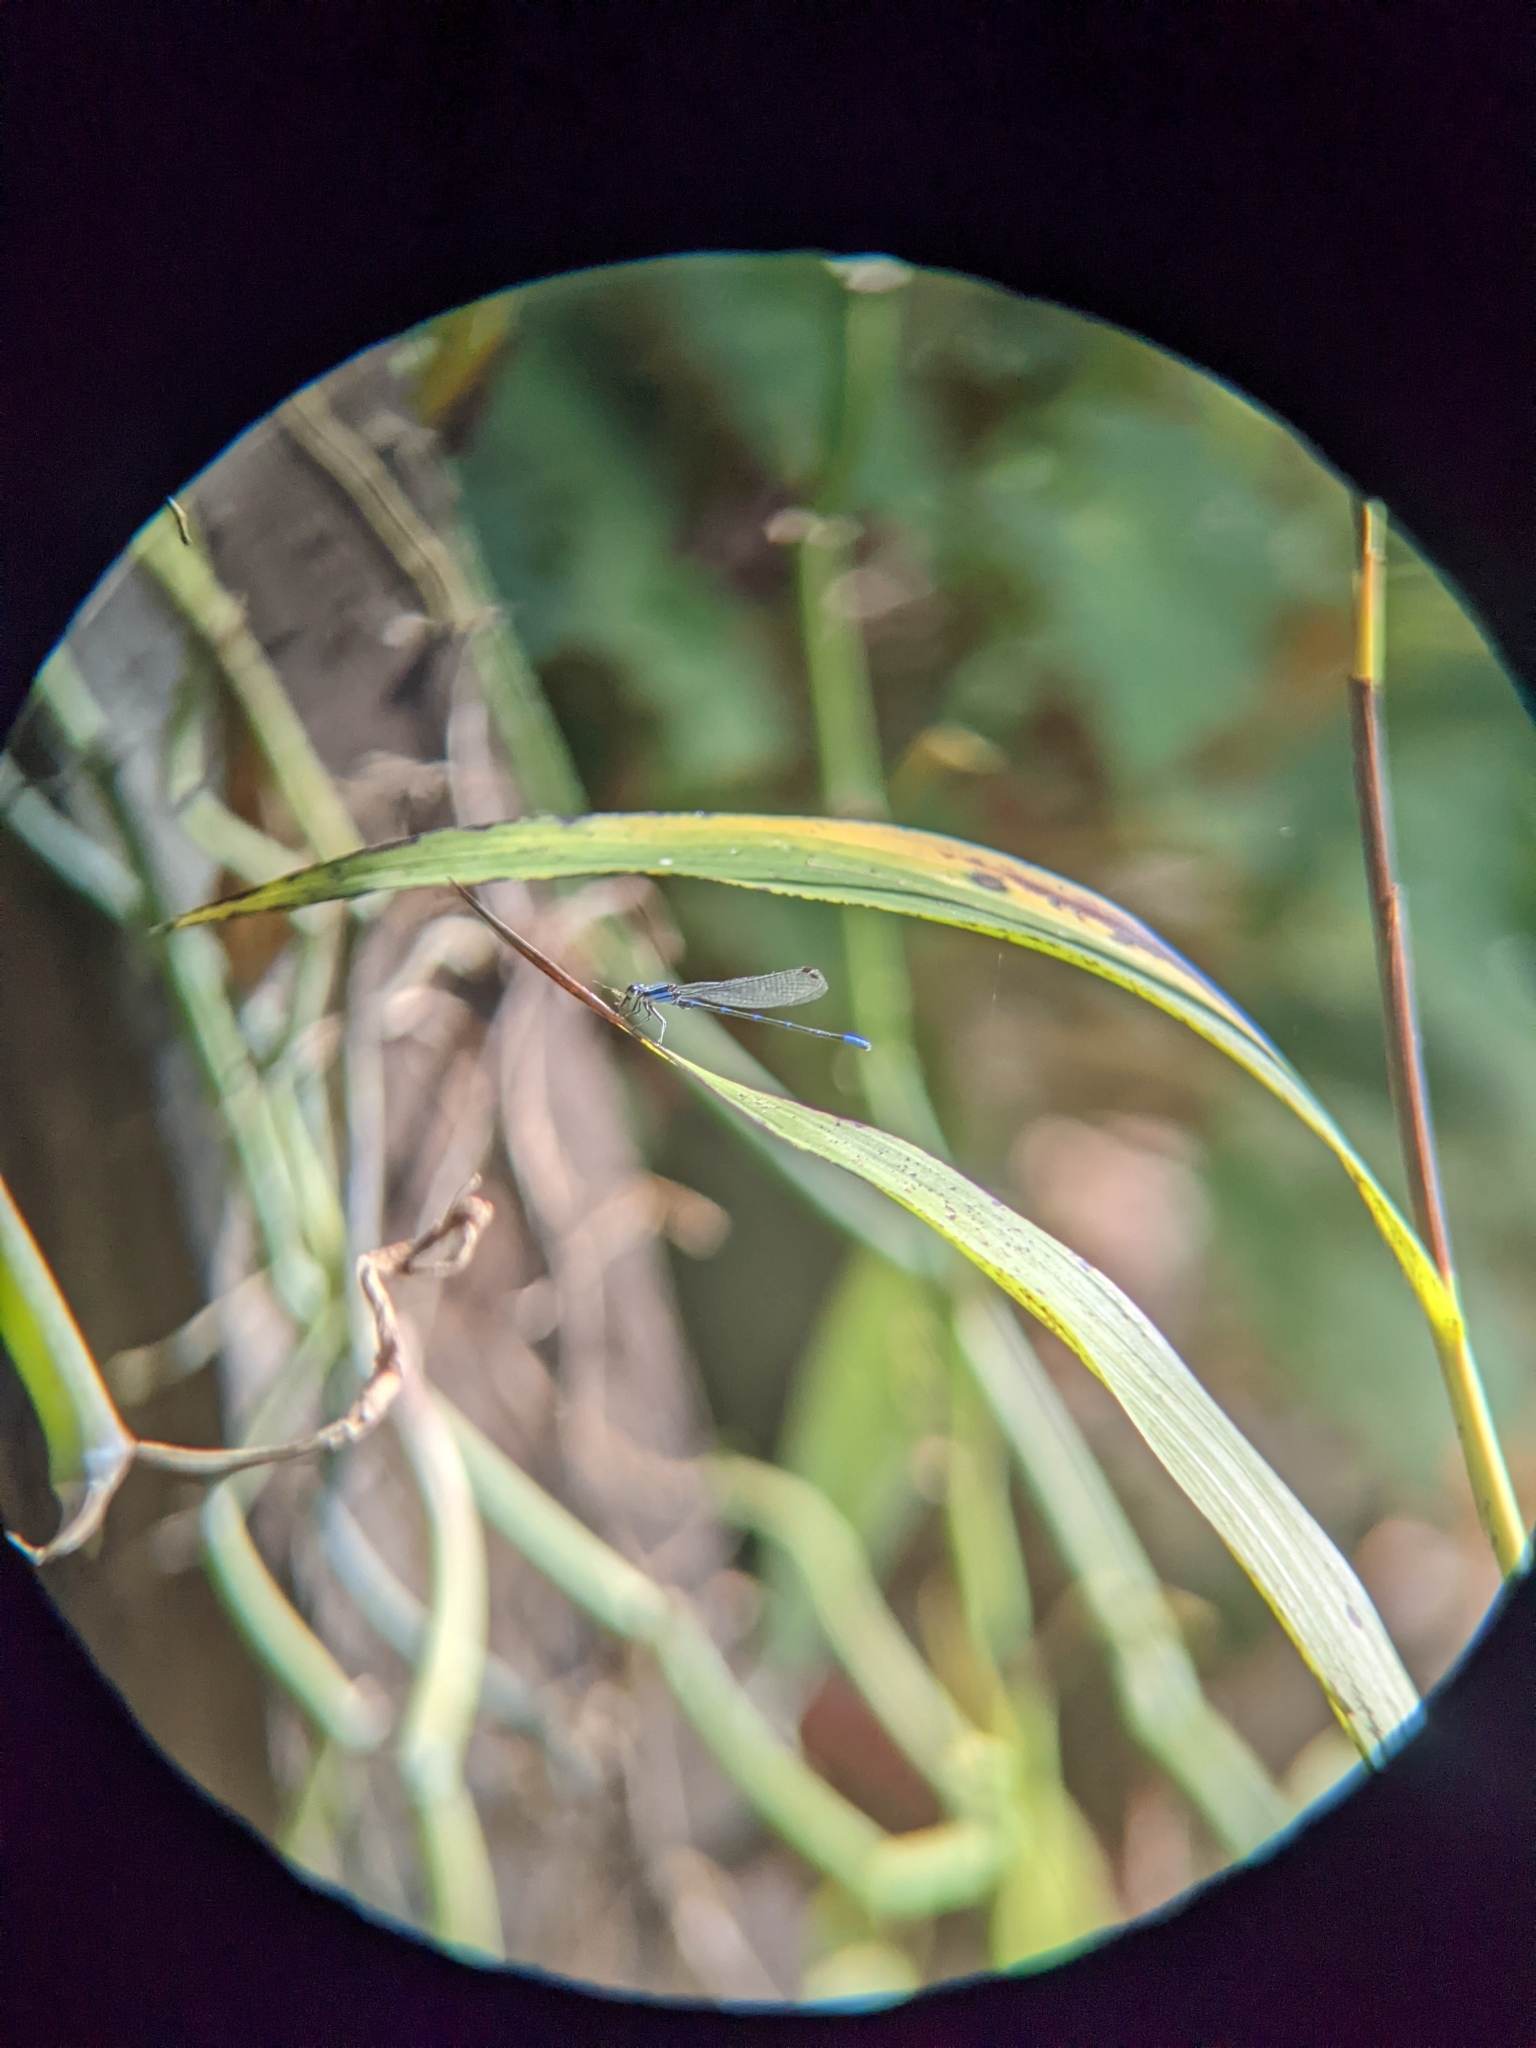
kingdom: Animalia
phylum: Arthropoda
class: Insecta
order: Odonata
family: Coenagrionidae
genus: Argia
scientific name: Argia oculata
